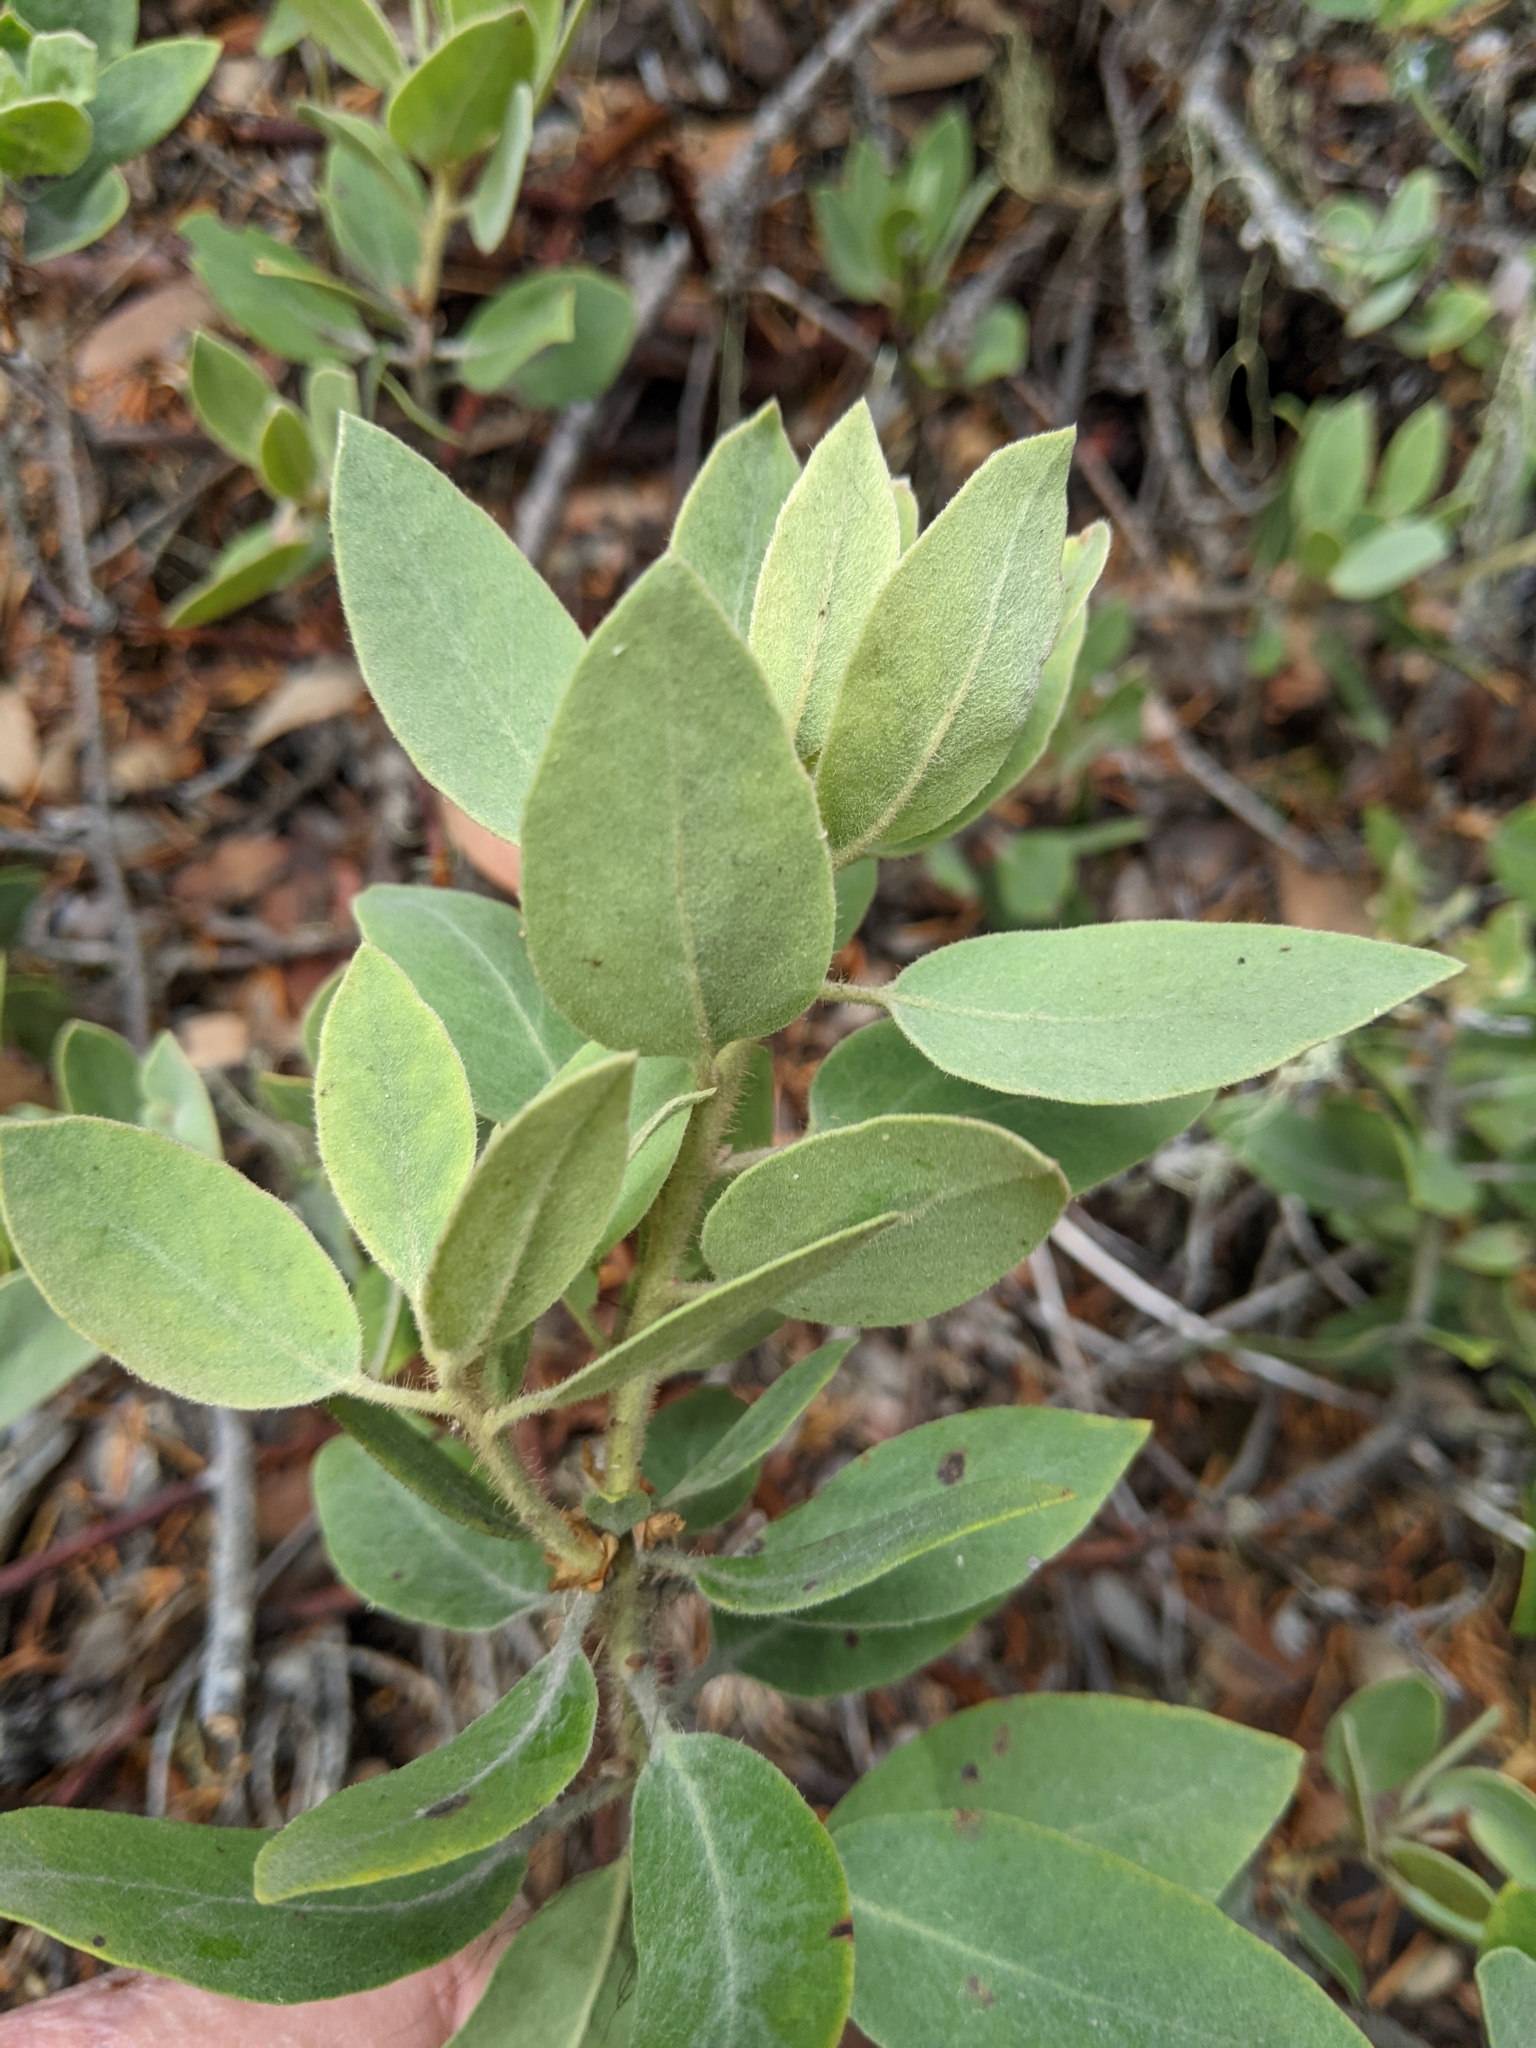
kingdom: Plantae
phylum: Tracheophyta
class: Magnoliopsida
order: Ericales
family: Ericaceae
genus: Arctostaphylos
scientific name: Arctostaphylos columbiana
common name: Bristly bearberry
